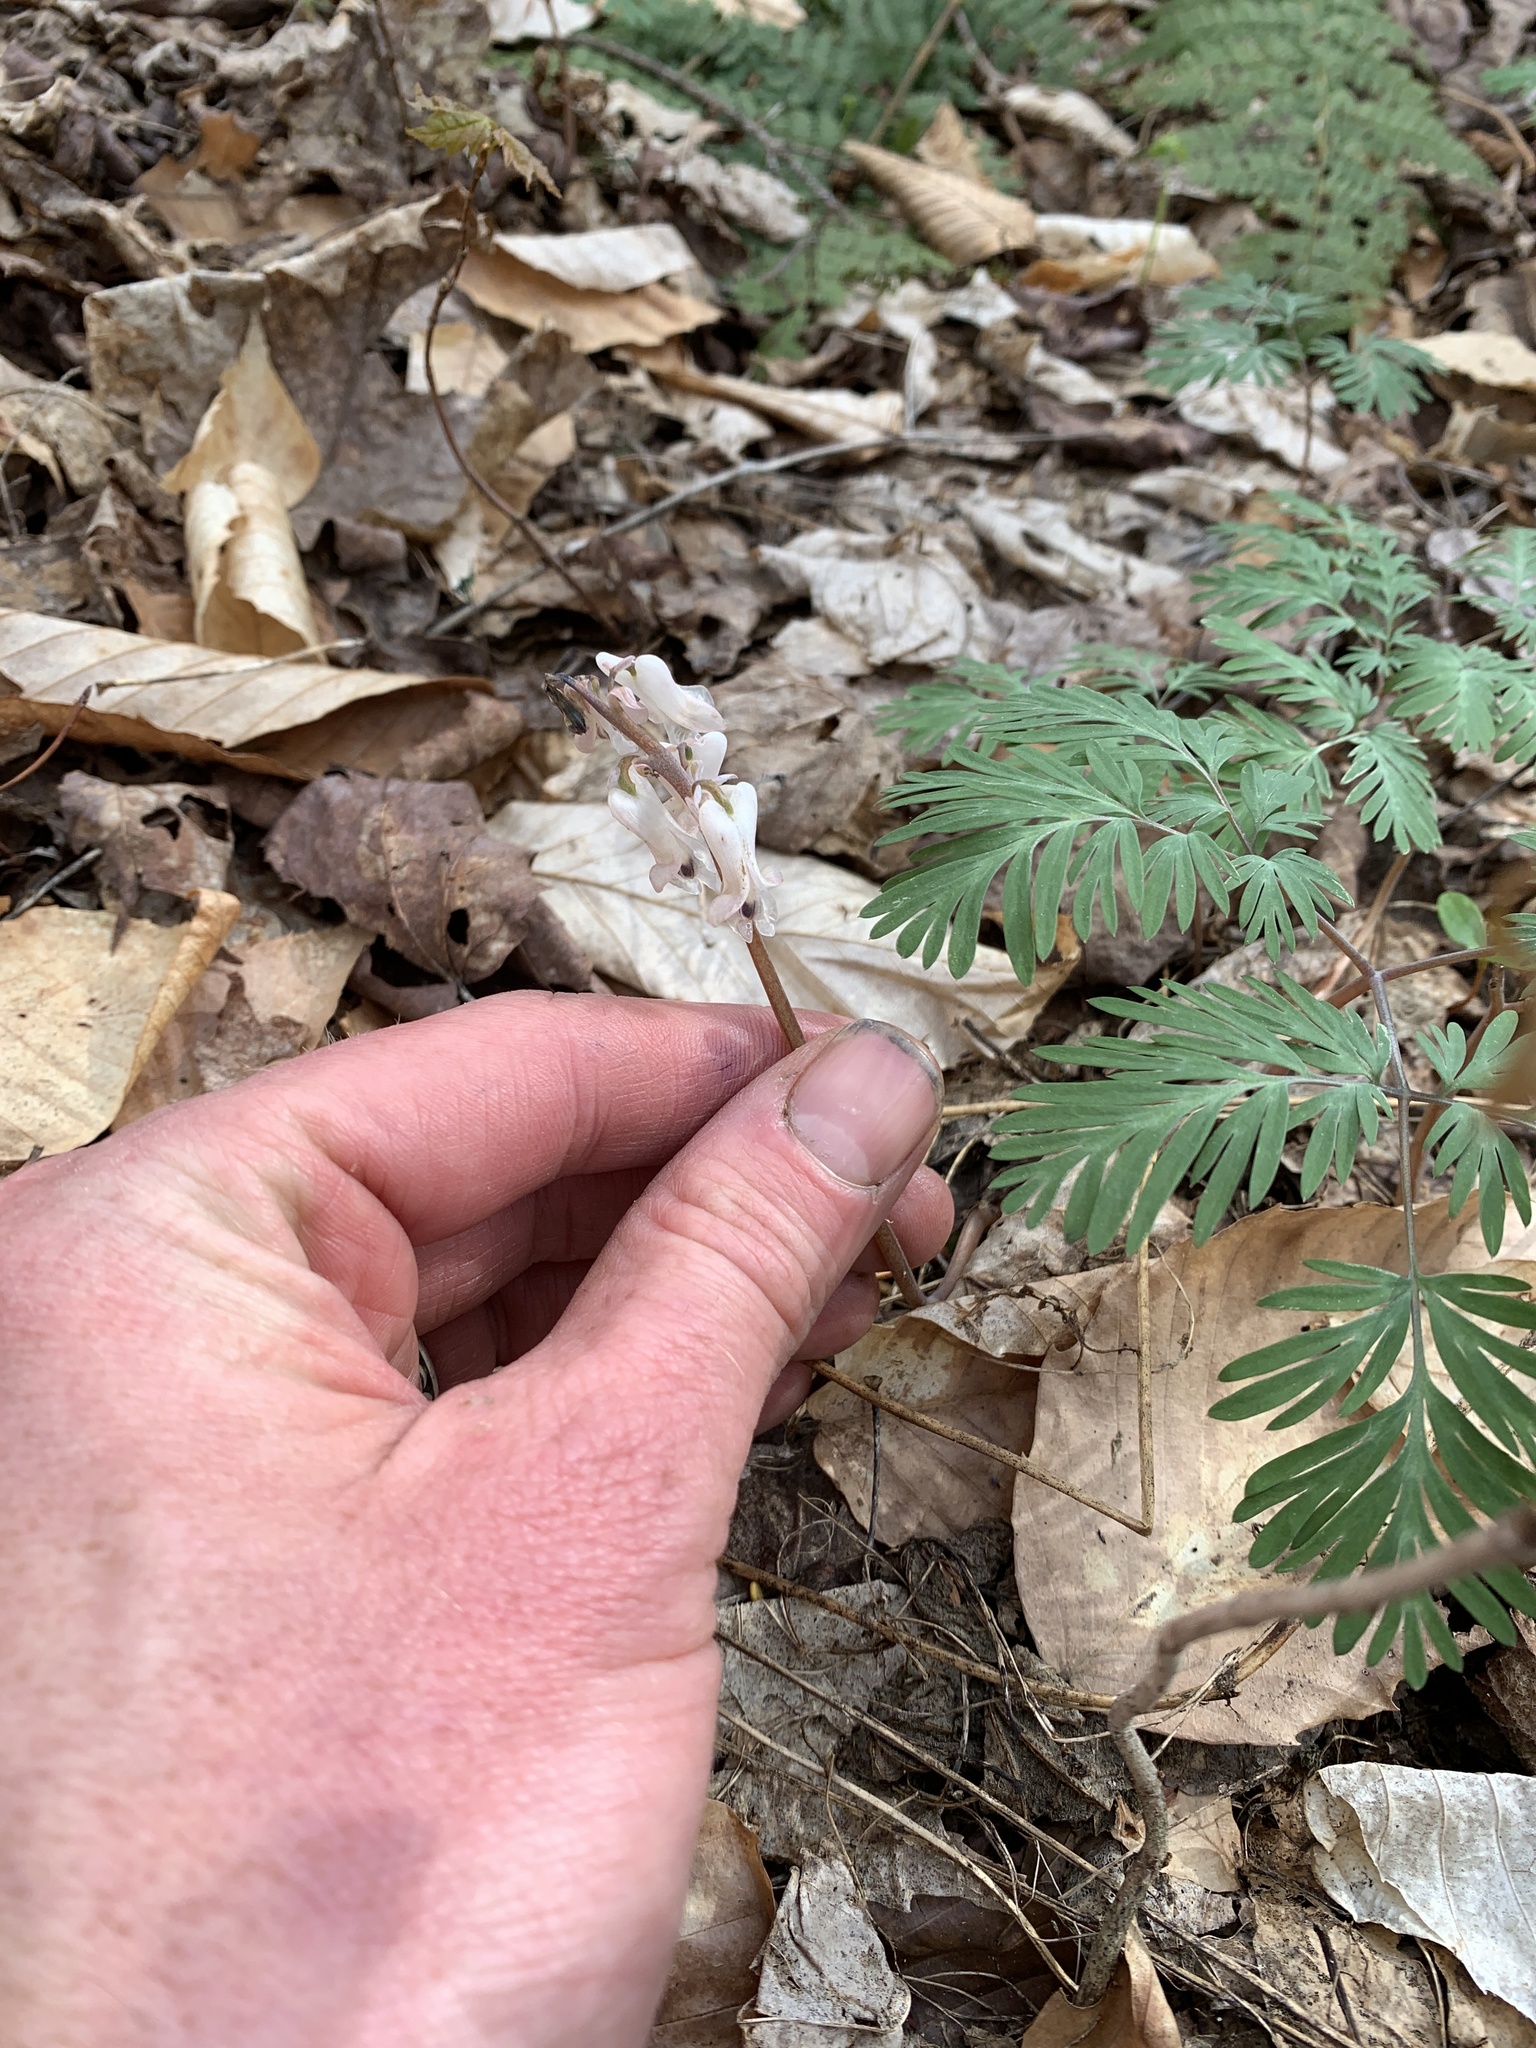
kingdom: Plantae
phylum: Tracheophyta
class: Magnoliopsida
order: Ranunculales
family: Papaveraceae
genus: Dicentra
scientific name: Dicentra canadensis
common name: Squirrel-corn
